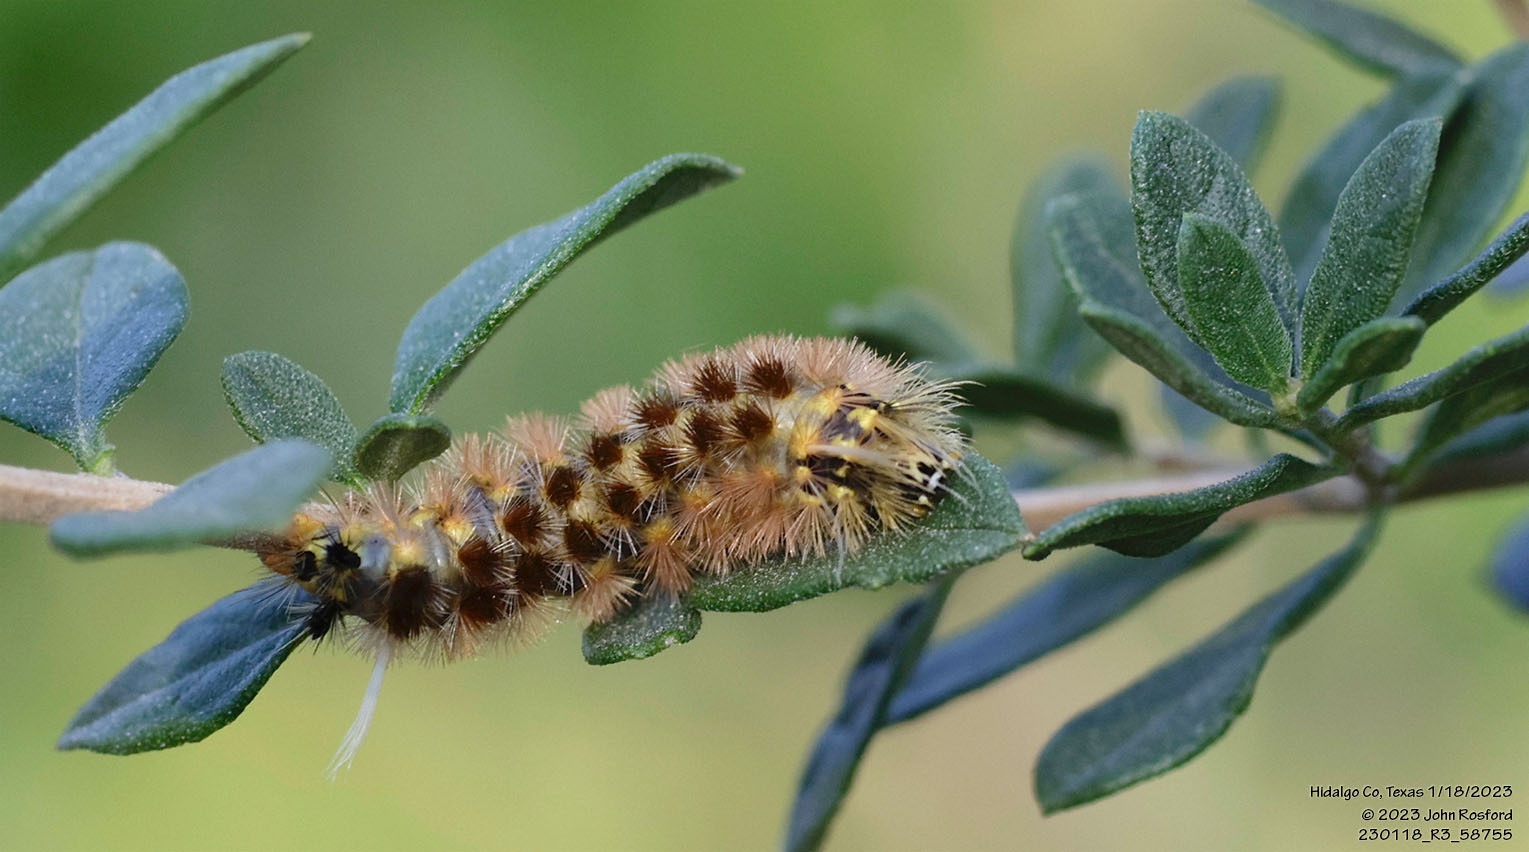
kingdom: Animalia
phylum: Arthropoda
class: Insecta
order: Lepidoptera
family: Erebidae
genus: Lophocampa
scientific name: Lophocampa annulosa
